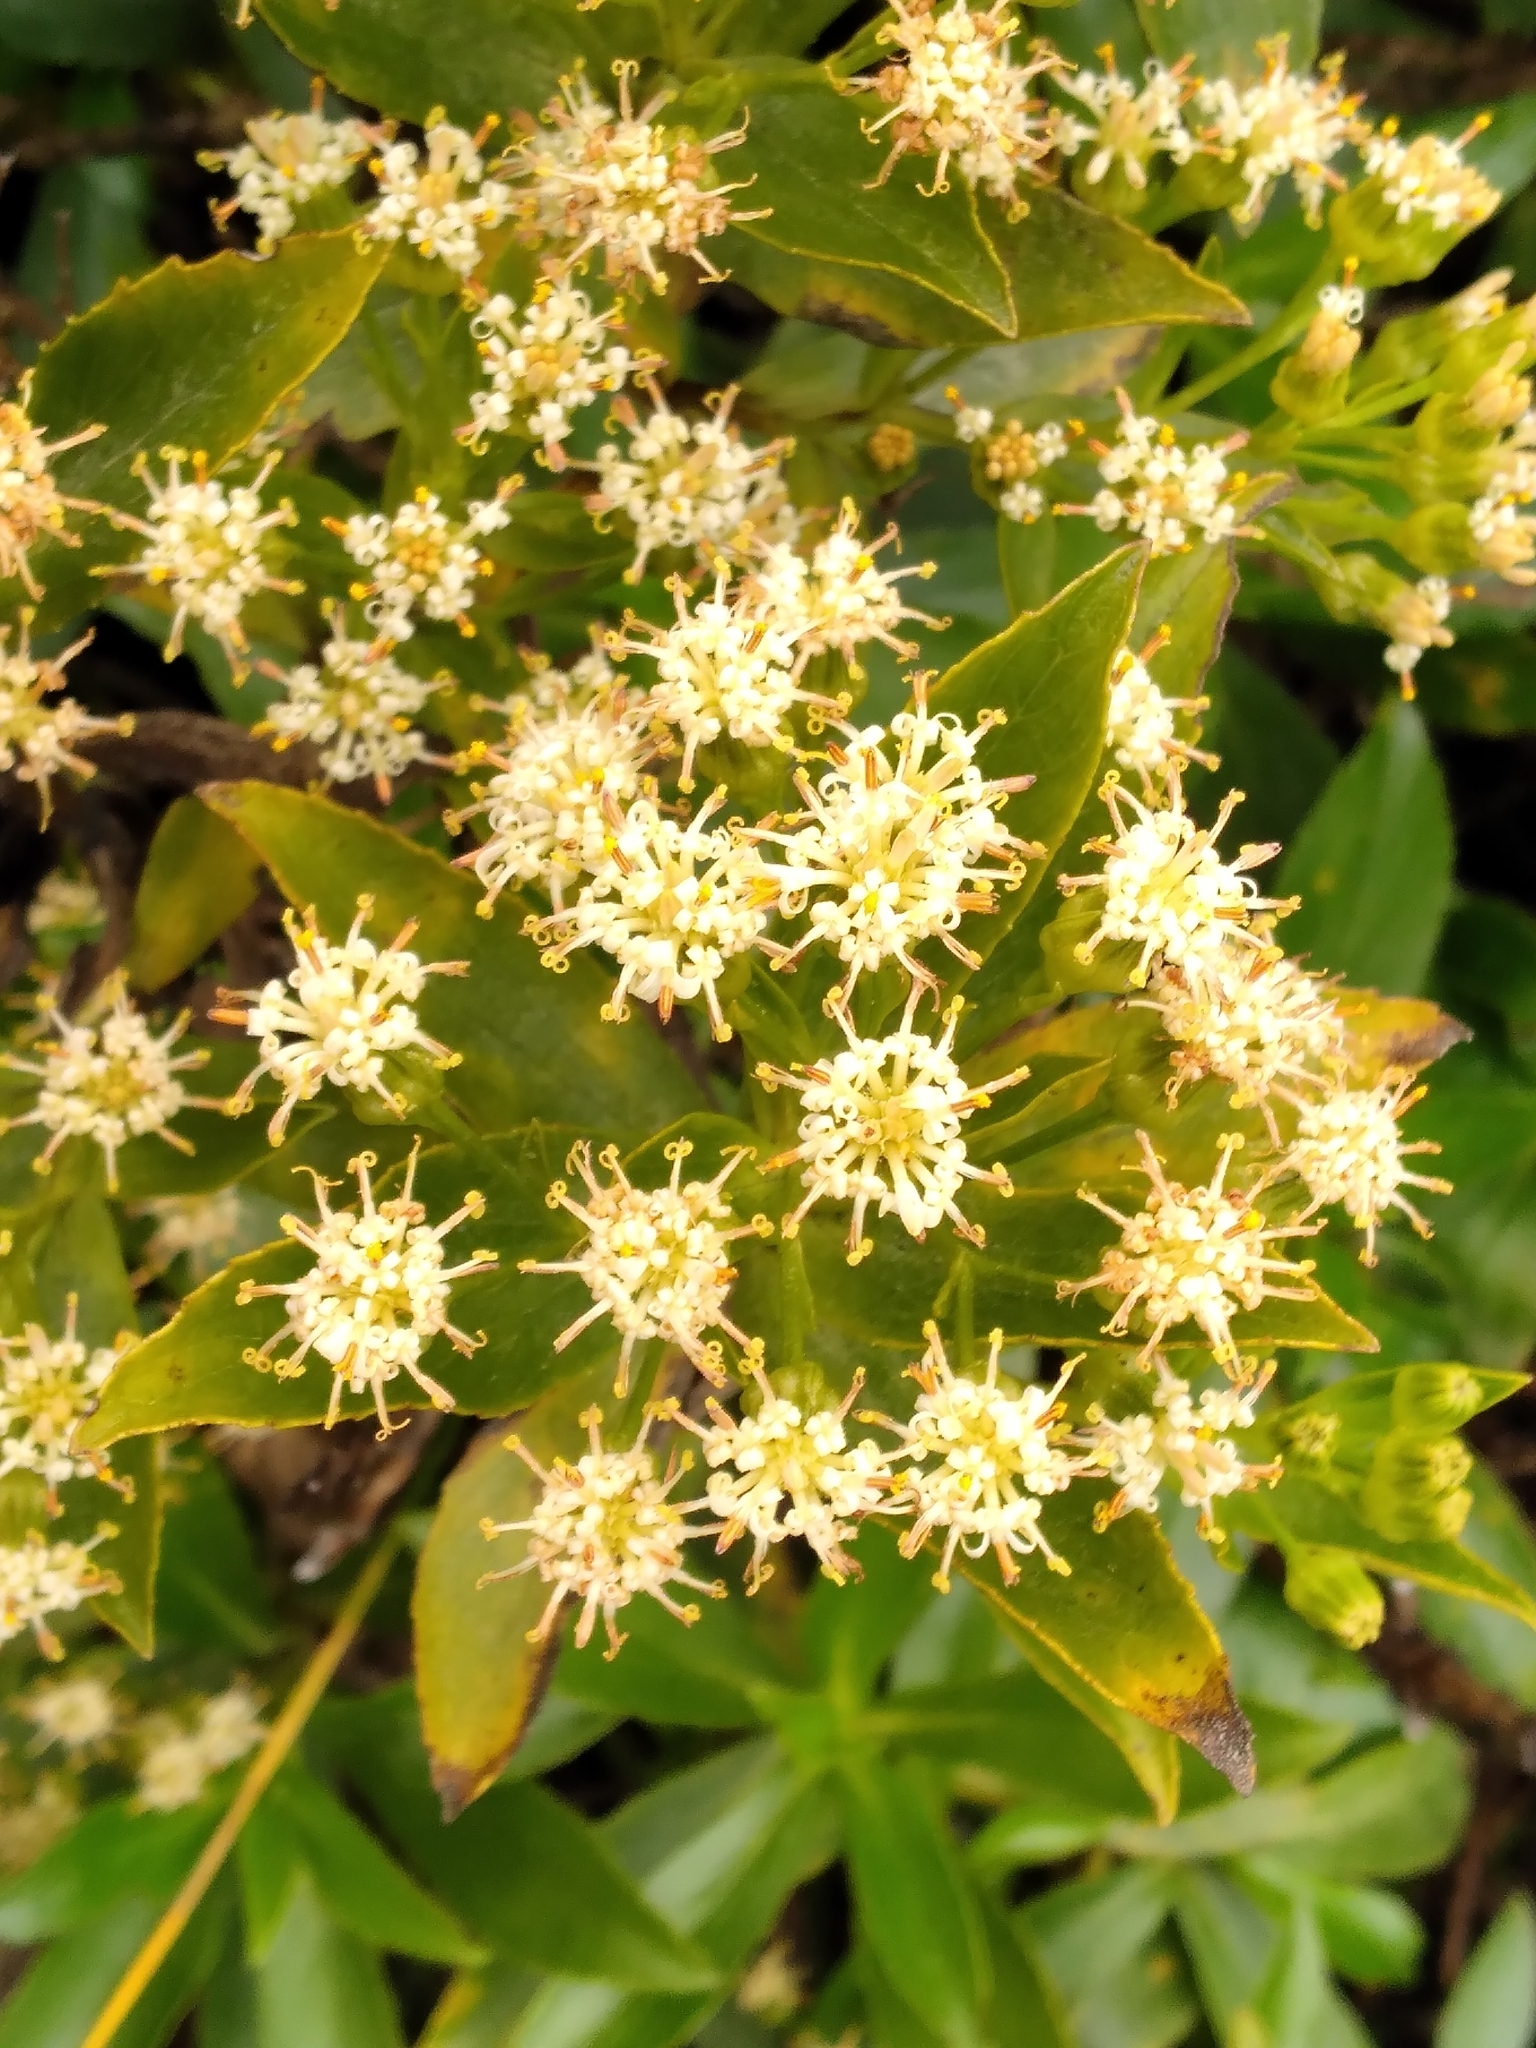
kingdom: Plantae
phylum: Tracheophyta
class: Magnoliopsida
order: Asterales
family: Asteraceae
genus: Traversia
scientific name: Traversia baccharoides
